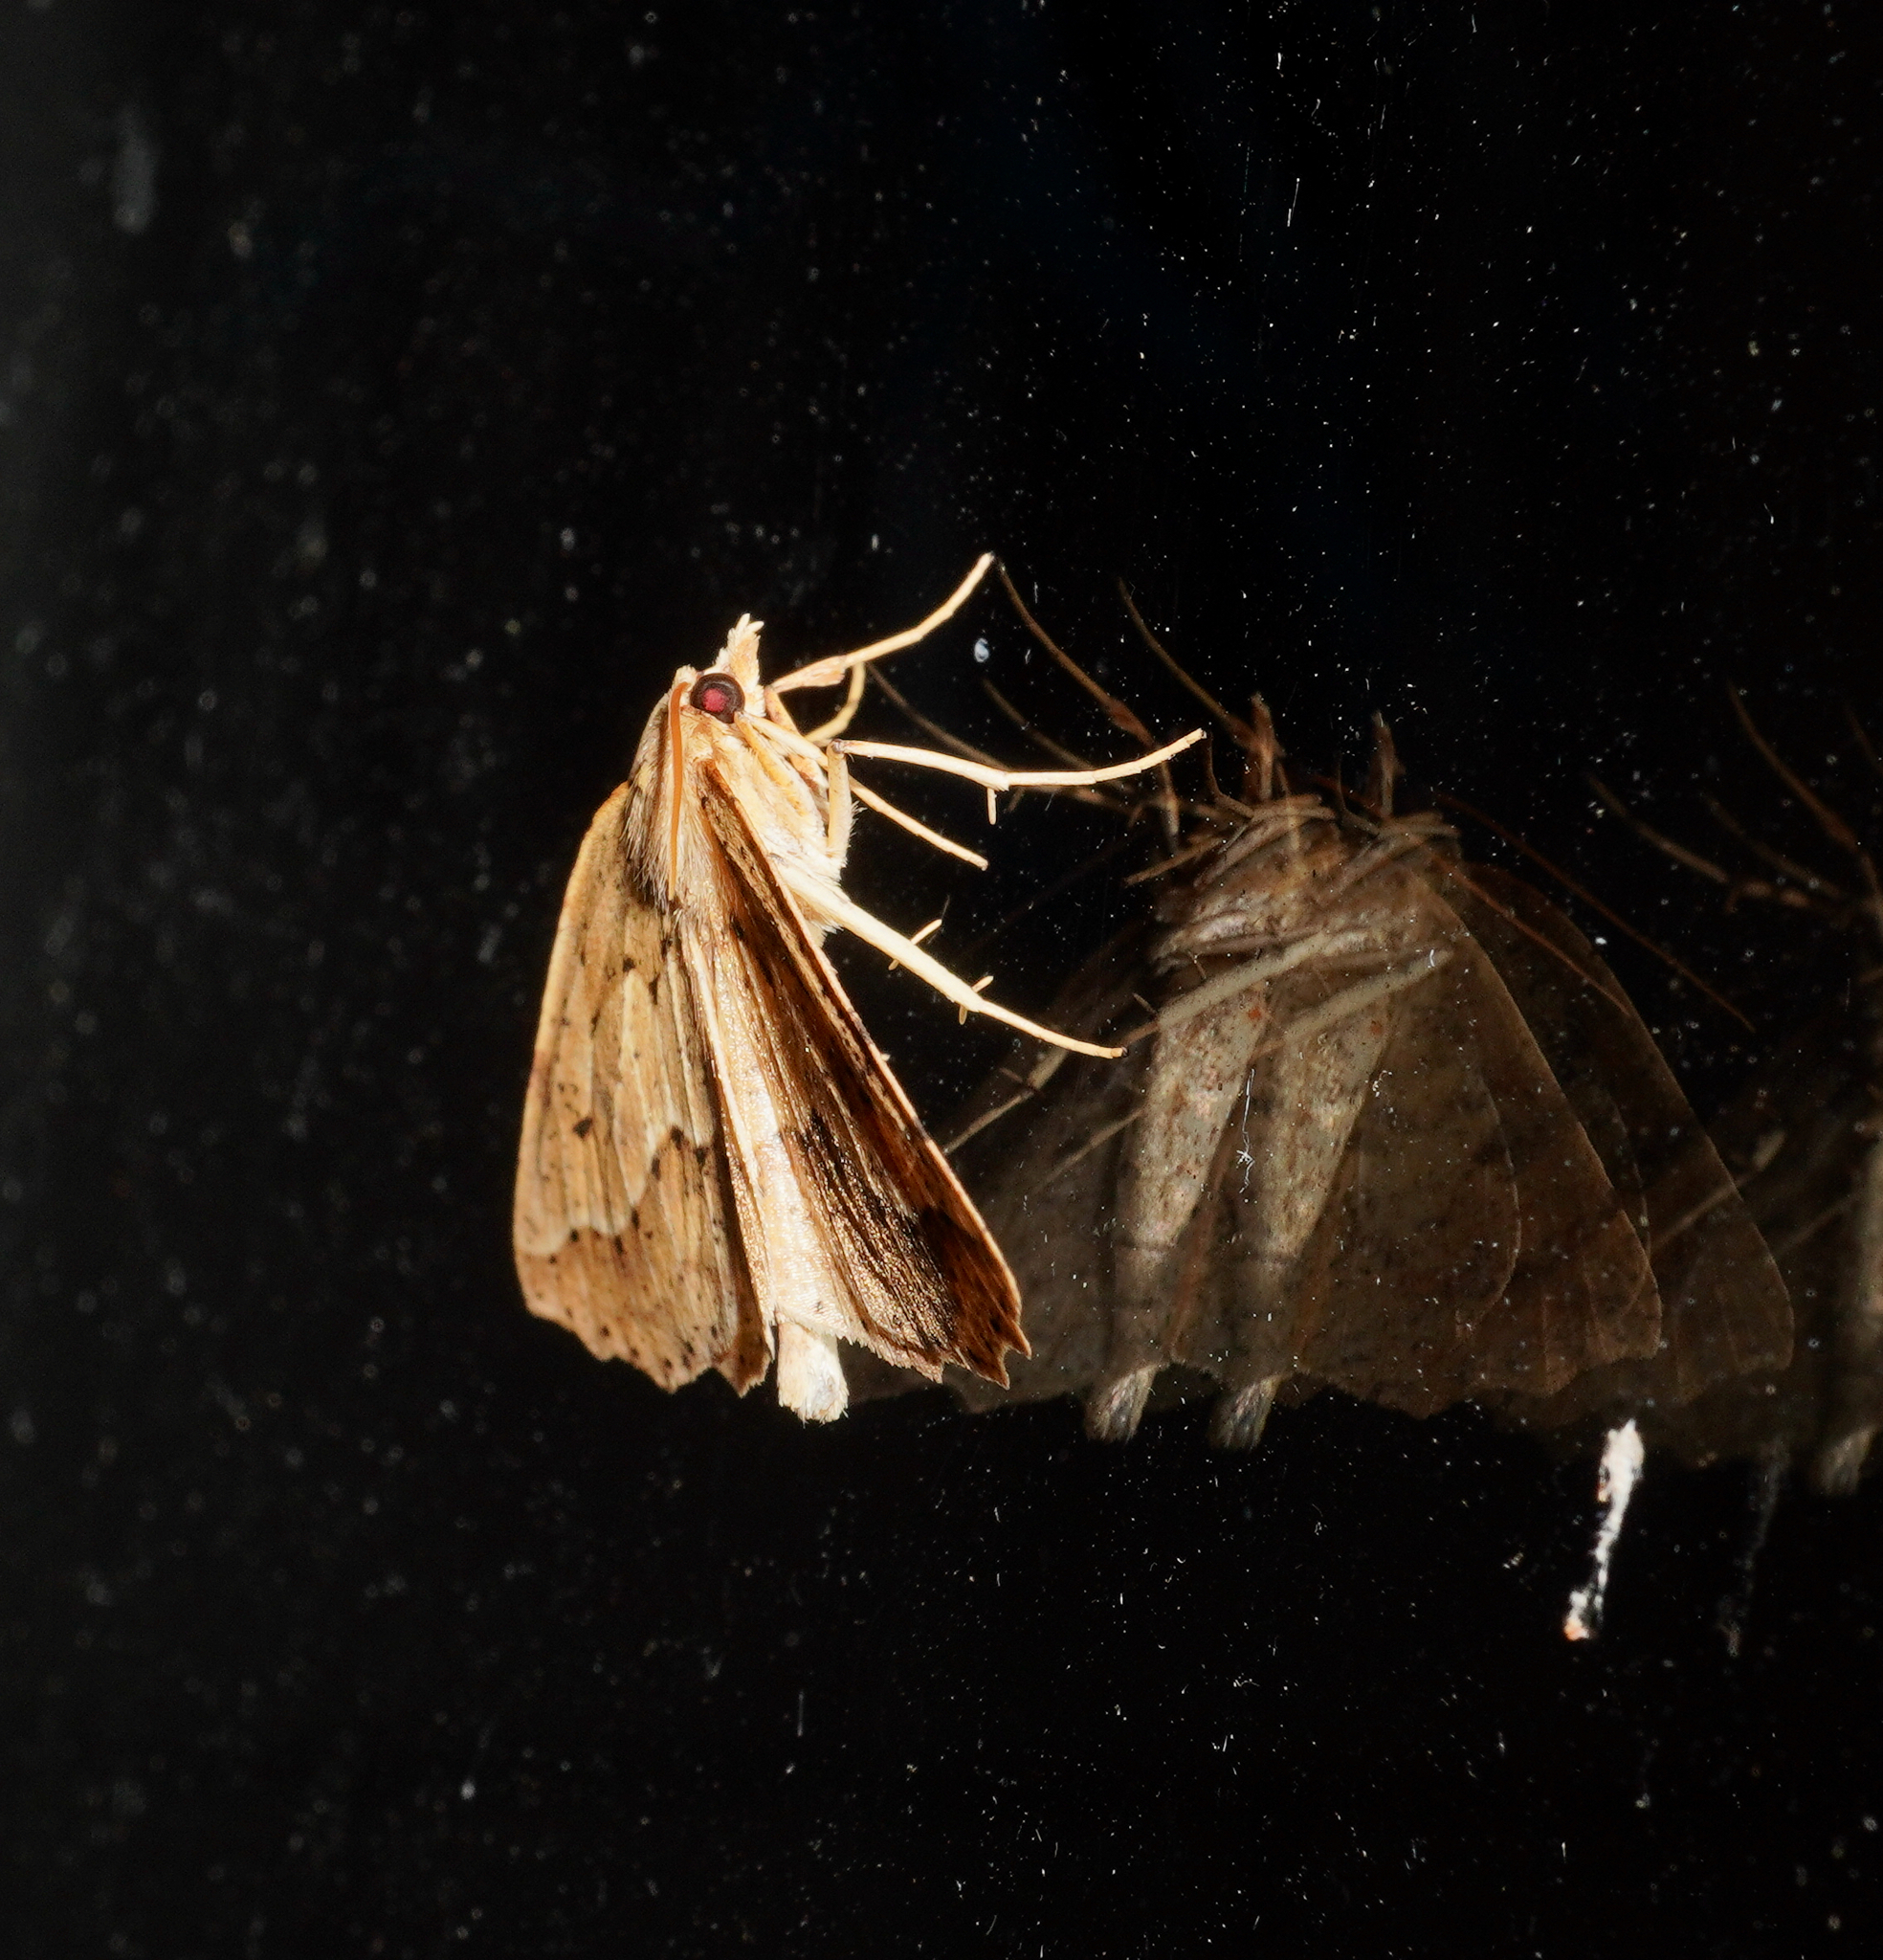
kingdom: Animalia
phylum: Arthropoda
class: Insecta
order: Lepidoptera
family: Geometridae
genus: Ischalis
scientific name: Ischalis variabilis
